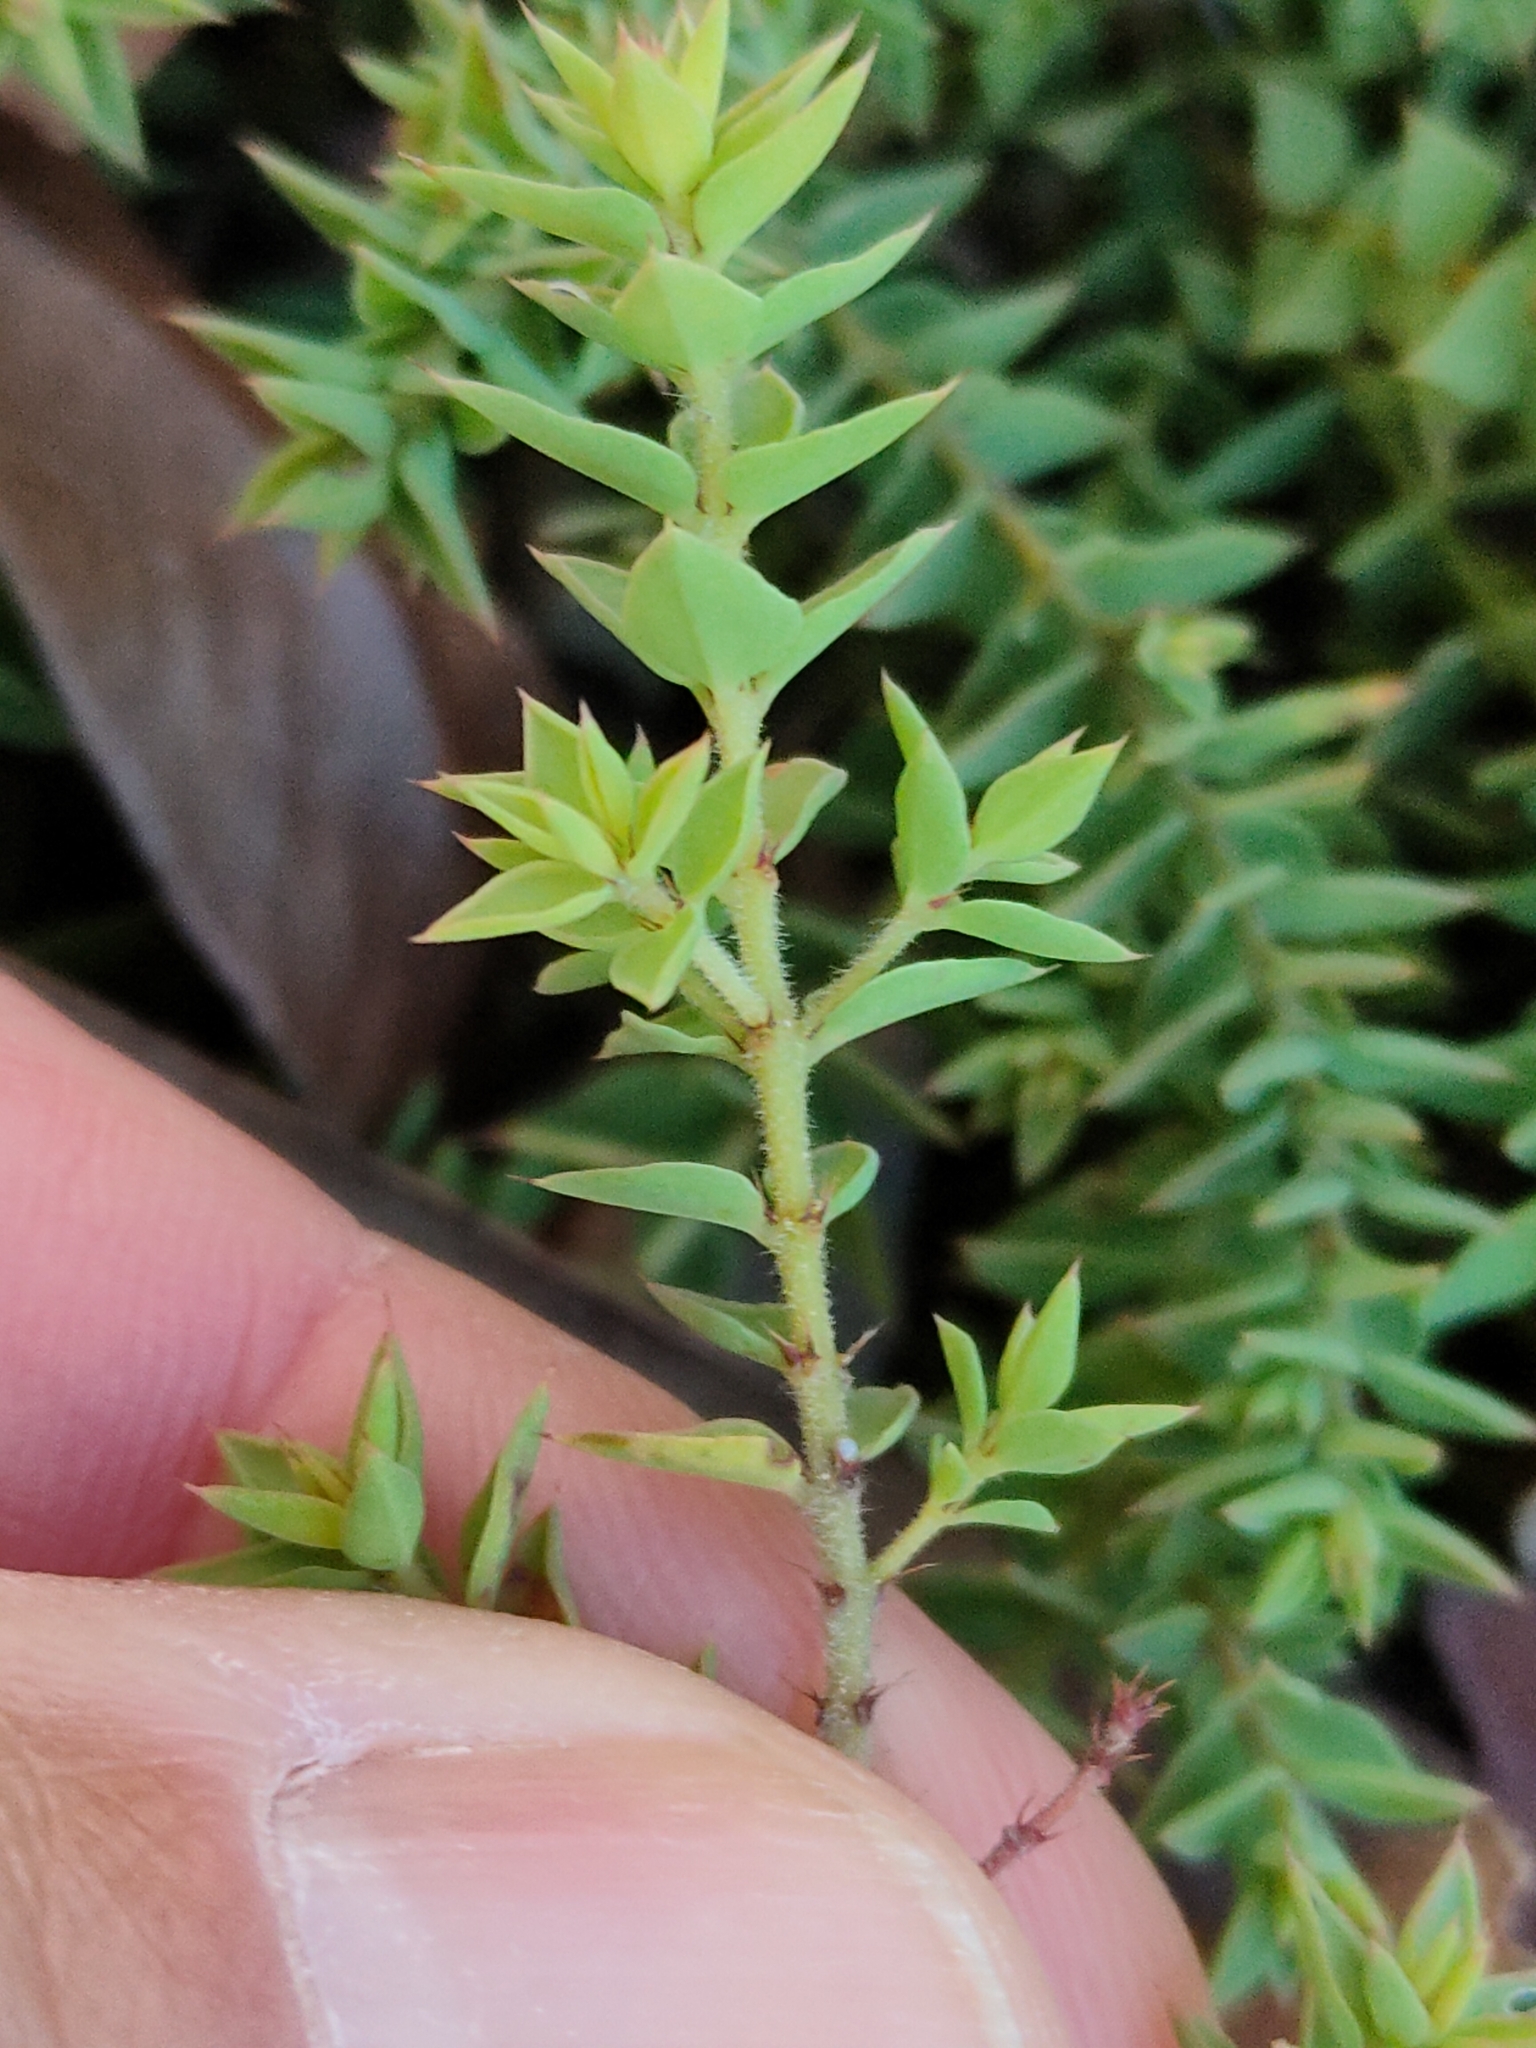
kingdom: Plantae
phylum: Tracheophyta
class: Magnoliopsida
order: Fabales
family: Fabaceae
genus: Pultenaea
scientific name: Pultenaea spinosa
